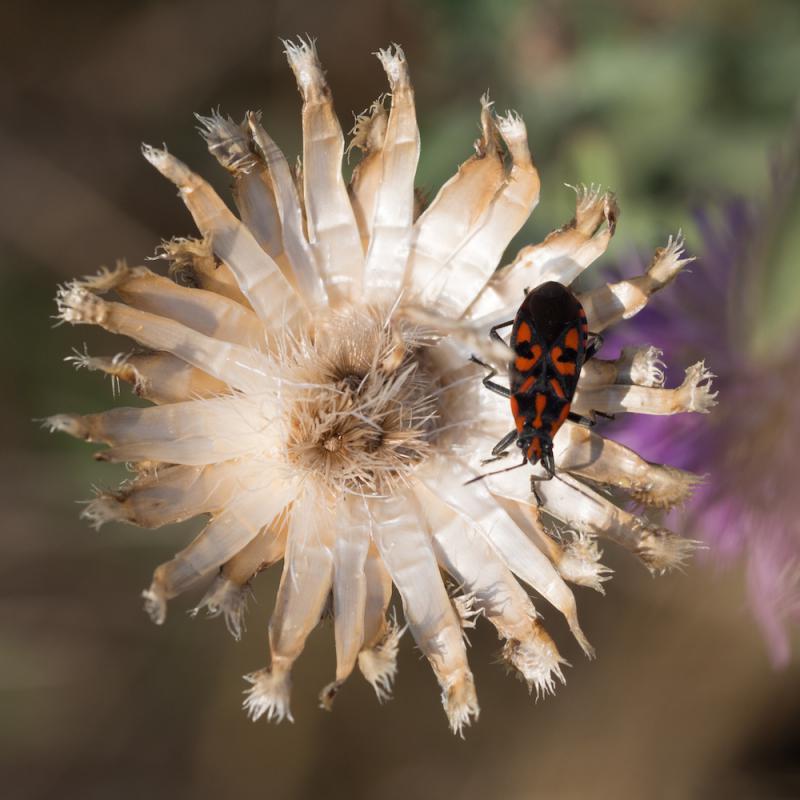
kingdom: Animalia
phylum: Arthropoda
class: Insecta
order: Hemiptera
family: Lygaeidae
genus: Spilostethus
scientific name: Spilostethus saxatilis
